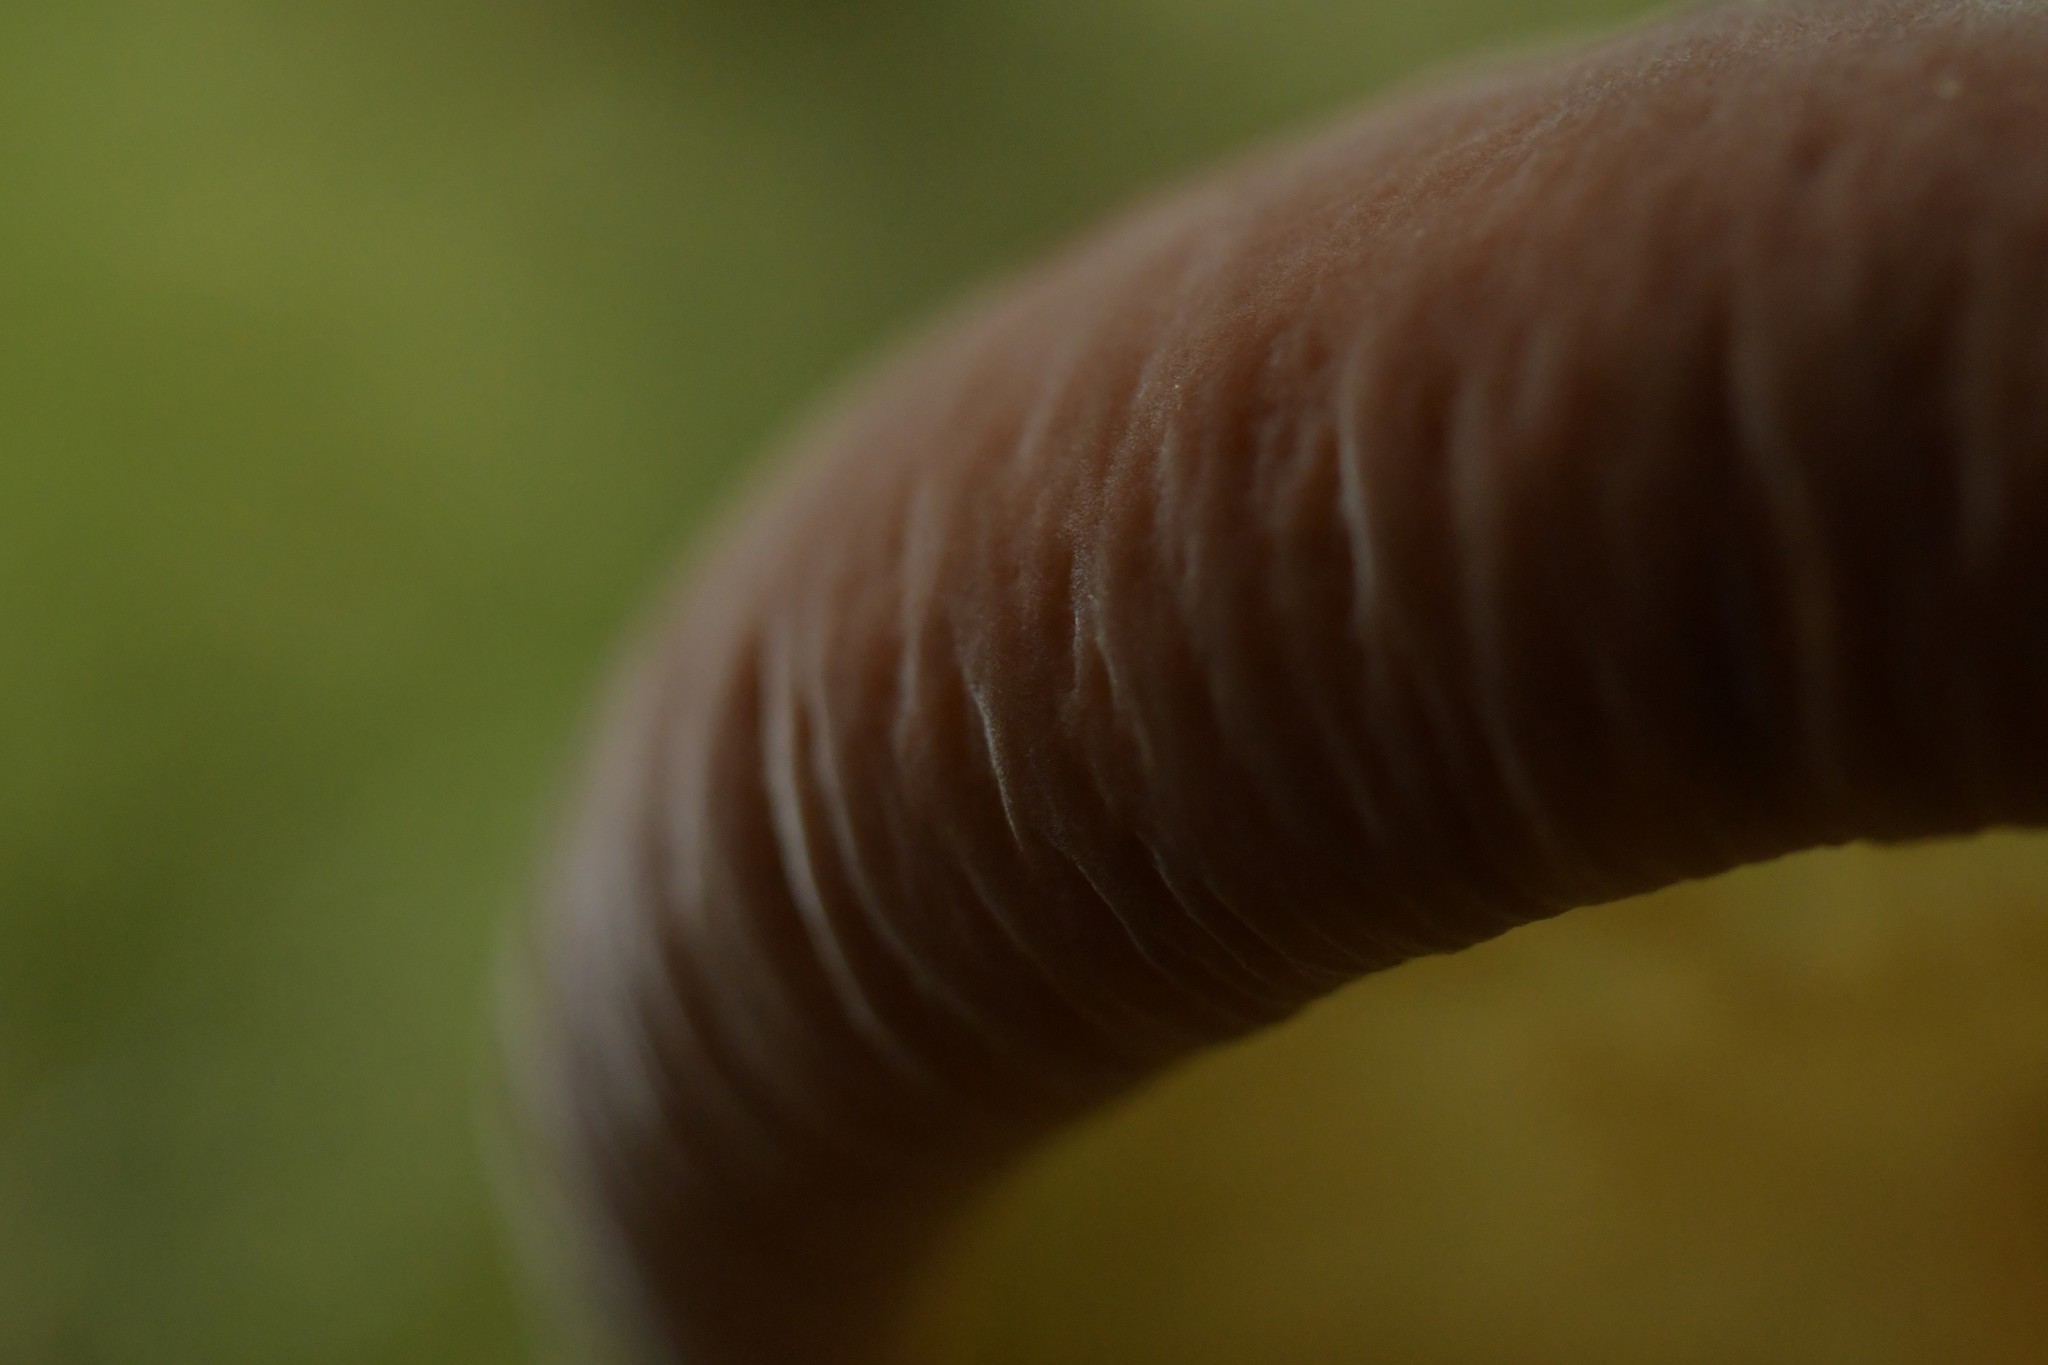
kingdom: Fungi
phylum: Basidiomycota
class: Agaricomycetes
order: Agaricales
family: Tubariaceae
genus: Cyclocybe
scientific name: Cyclocybe parasitica
